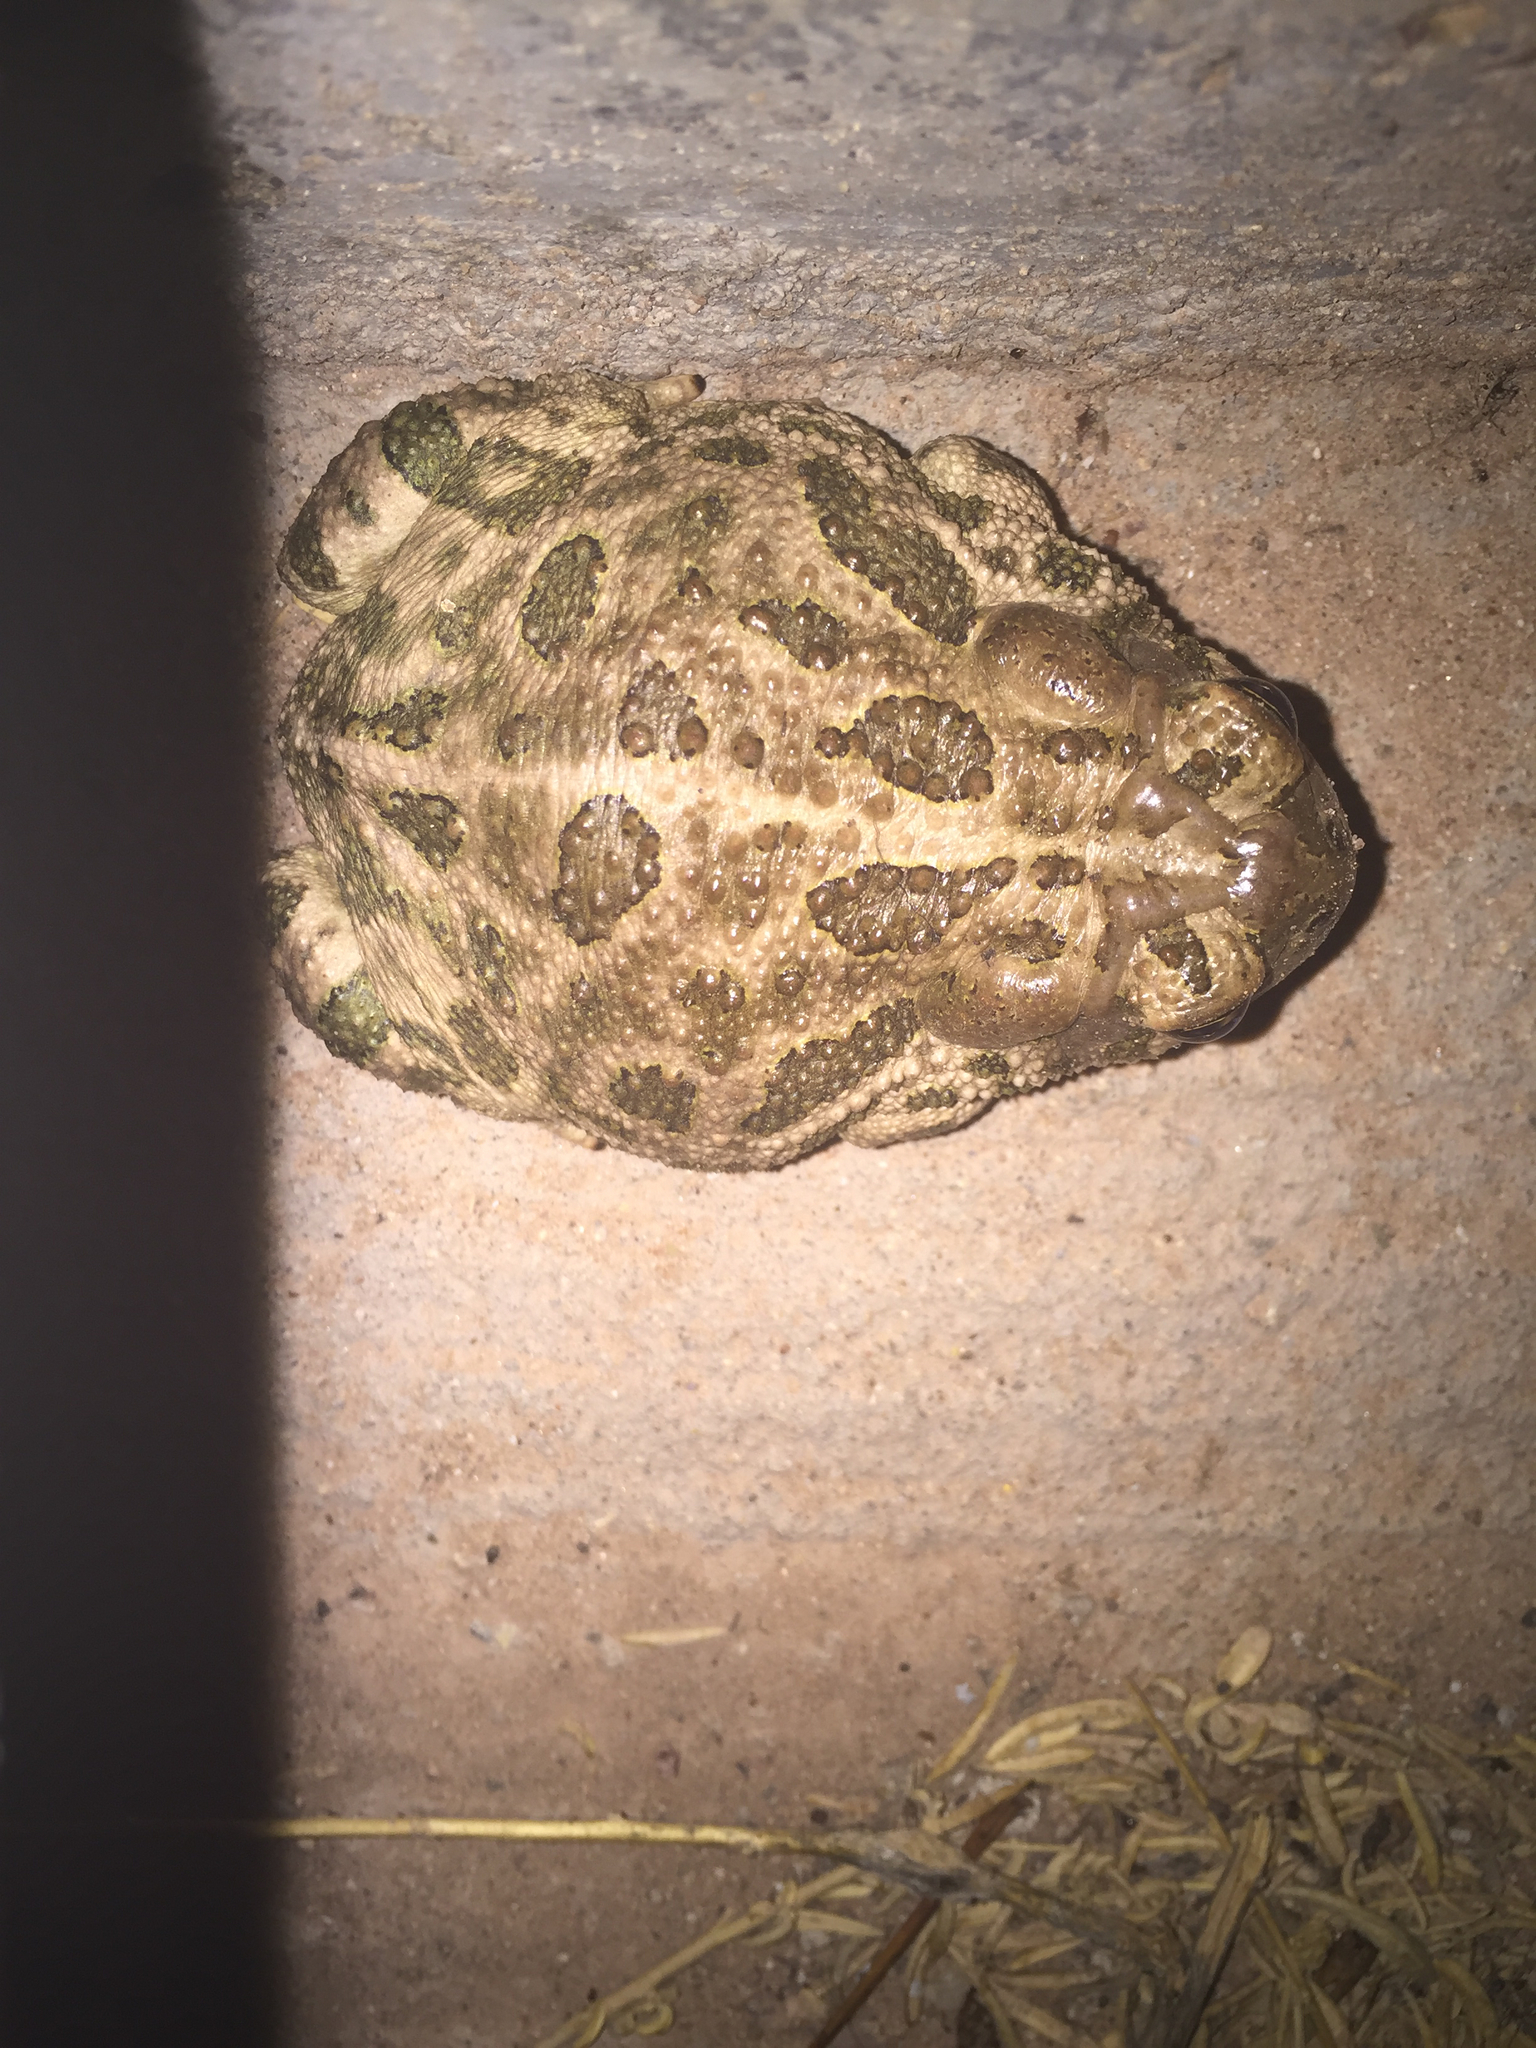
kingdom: Animalia
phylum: Chordata
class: Amphibia
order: Anura
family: Bufonidae
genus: Anaxyrus
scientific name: Anaxyrus cognatus
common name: Great plains toad
